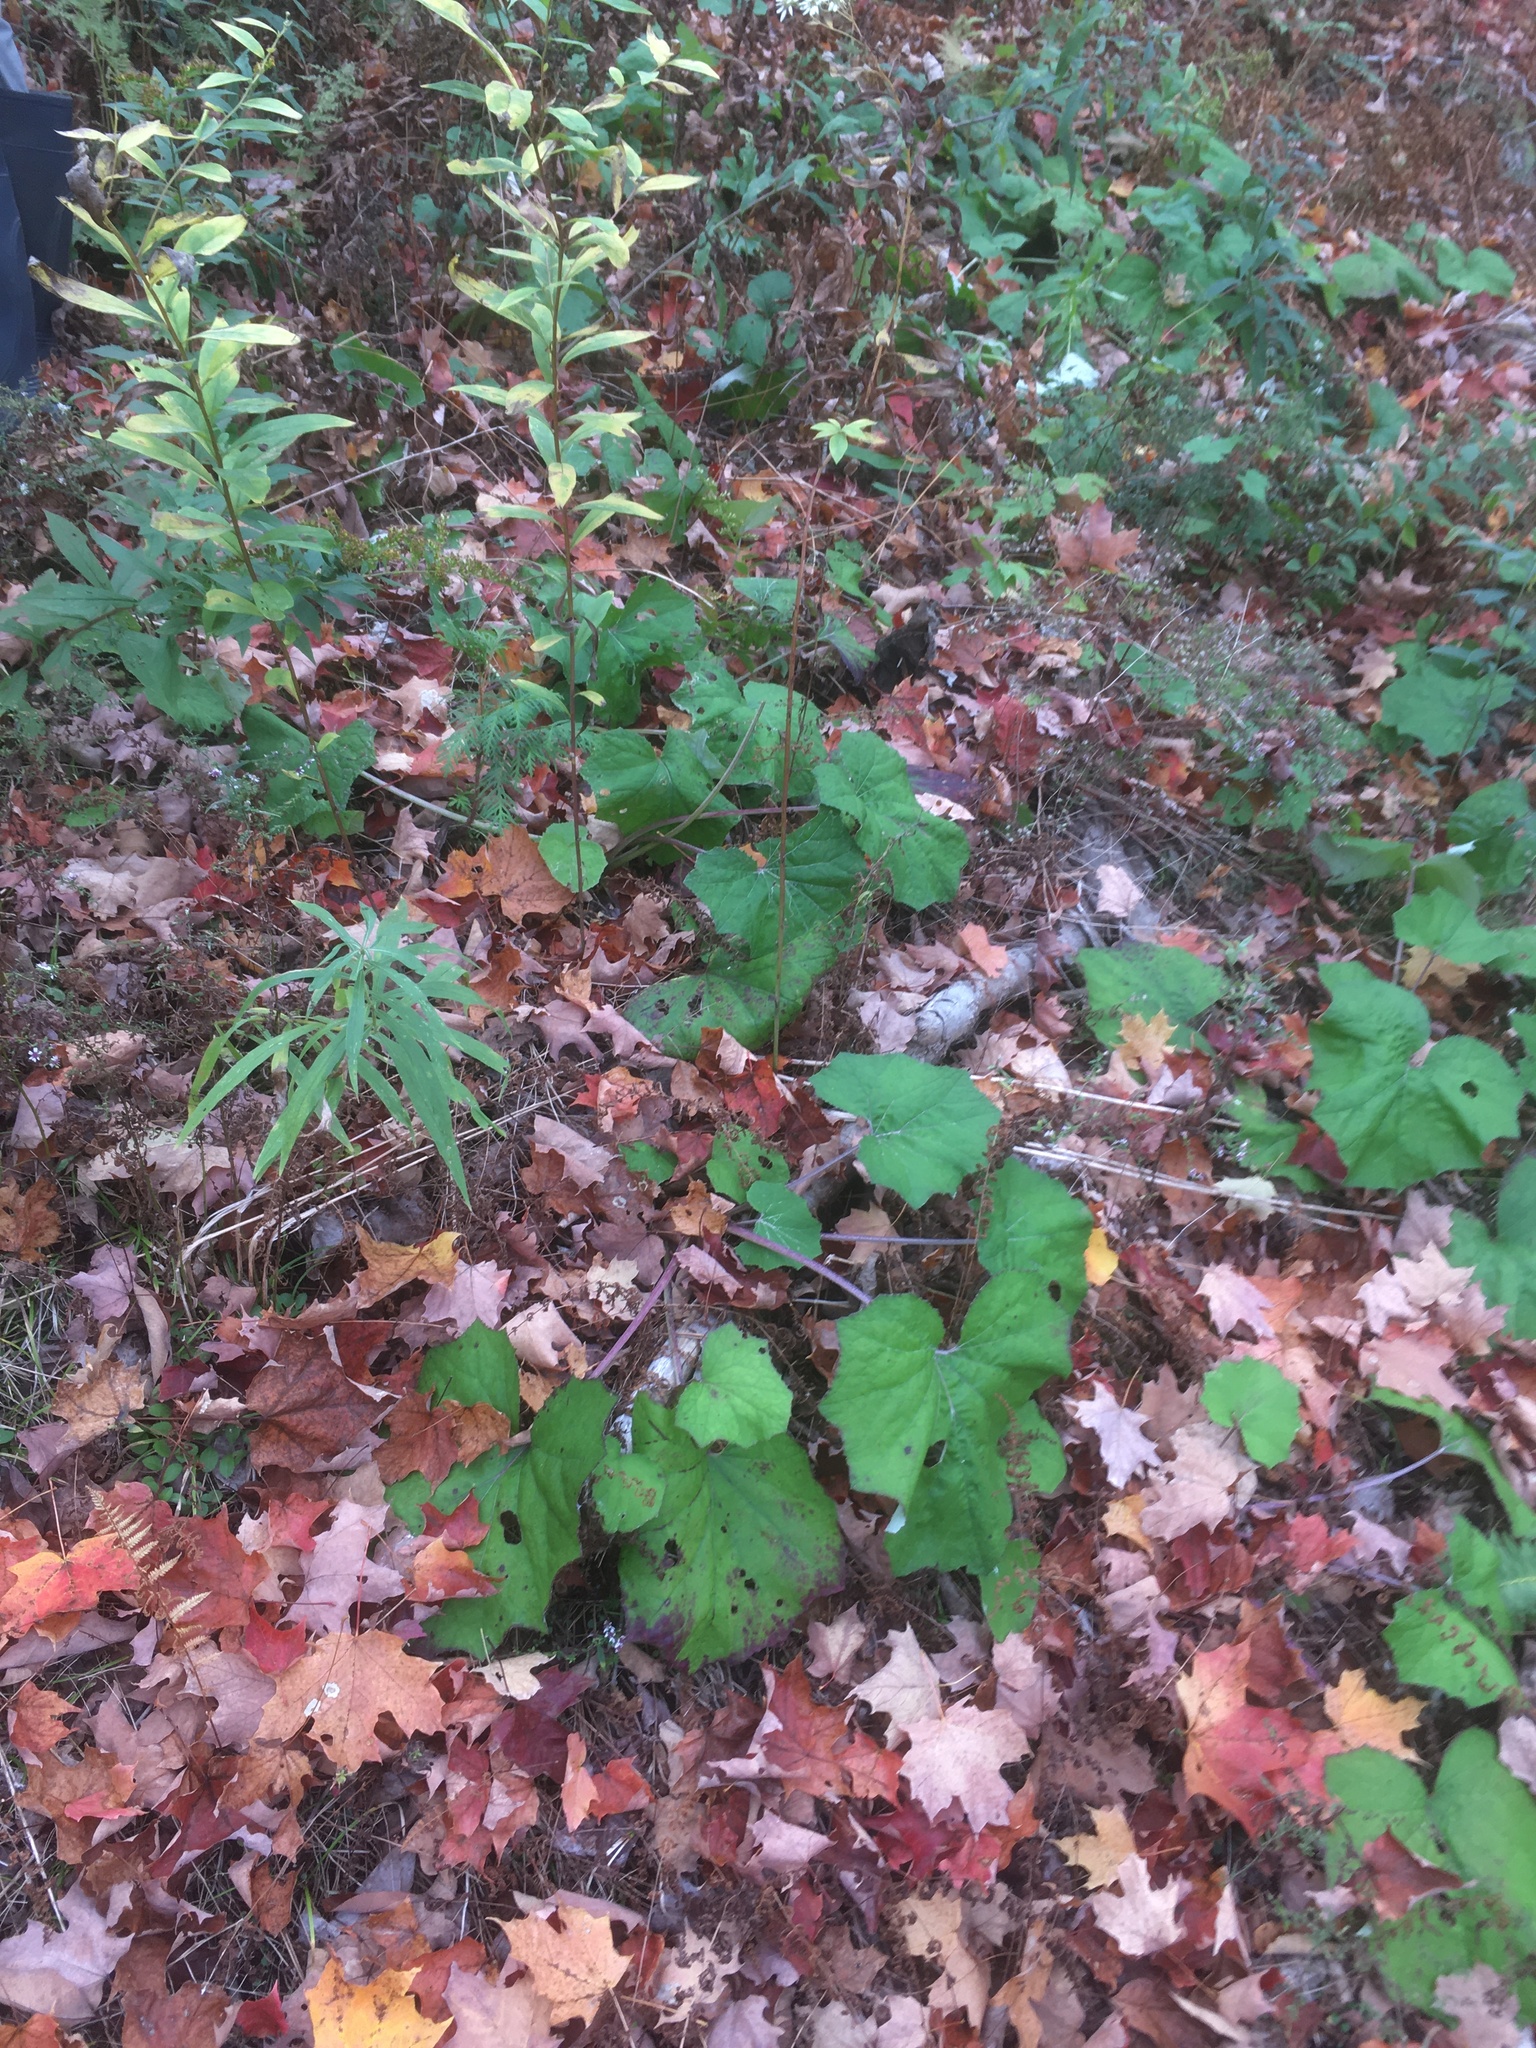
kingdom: Plantae
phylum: Tracheophyta
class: Magnoliopsida
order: Asterales
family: Asteraceae
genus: Tussilago
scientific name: Tussilago farfara
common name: Coltsfoot
